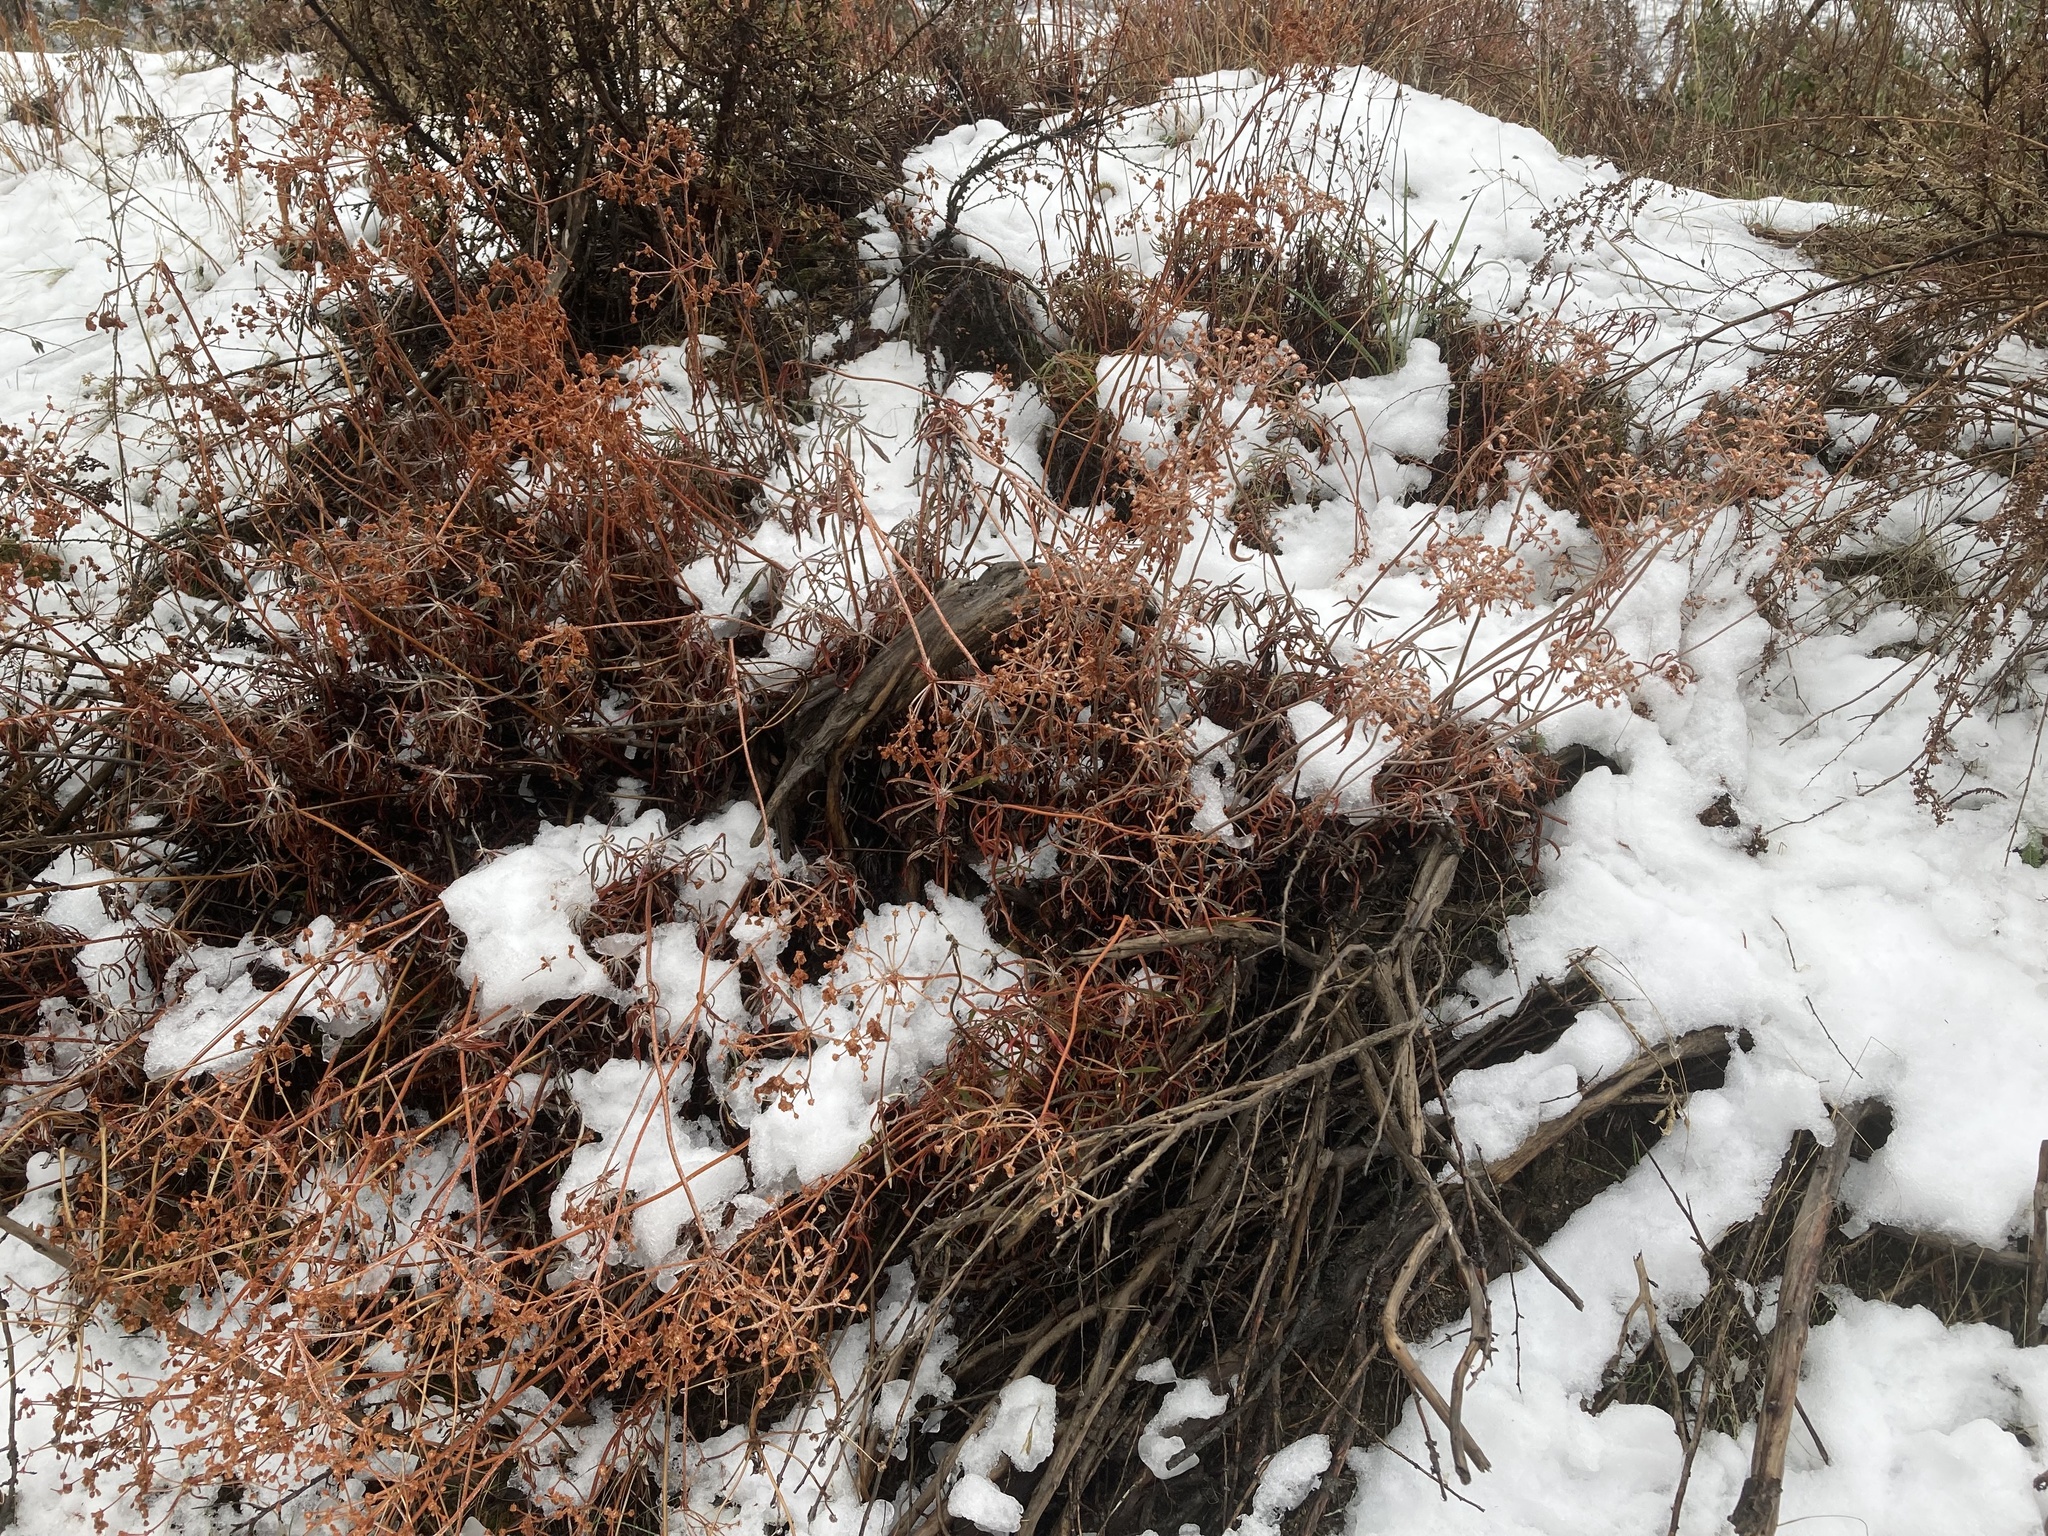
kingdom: Plantae
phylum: Tracheophyta
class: Magnoliopsida
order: Caryophyllales
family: Polygonaceae
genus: Eriogonum
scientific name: Eriogonum heracleoides
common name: Wyeth's buckwheat
